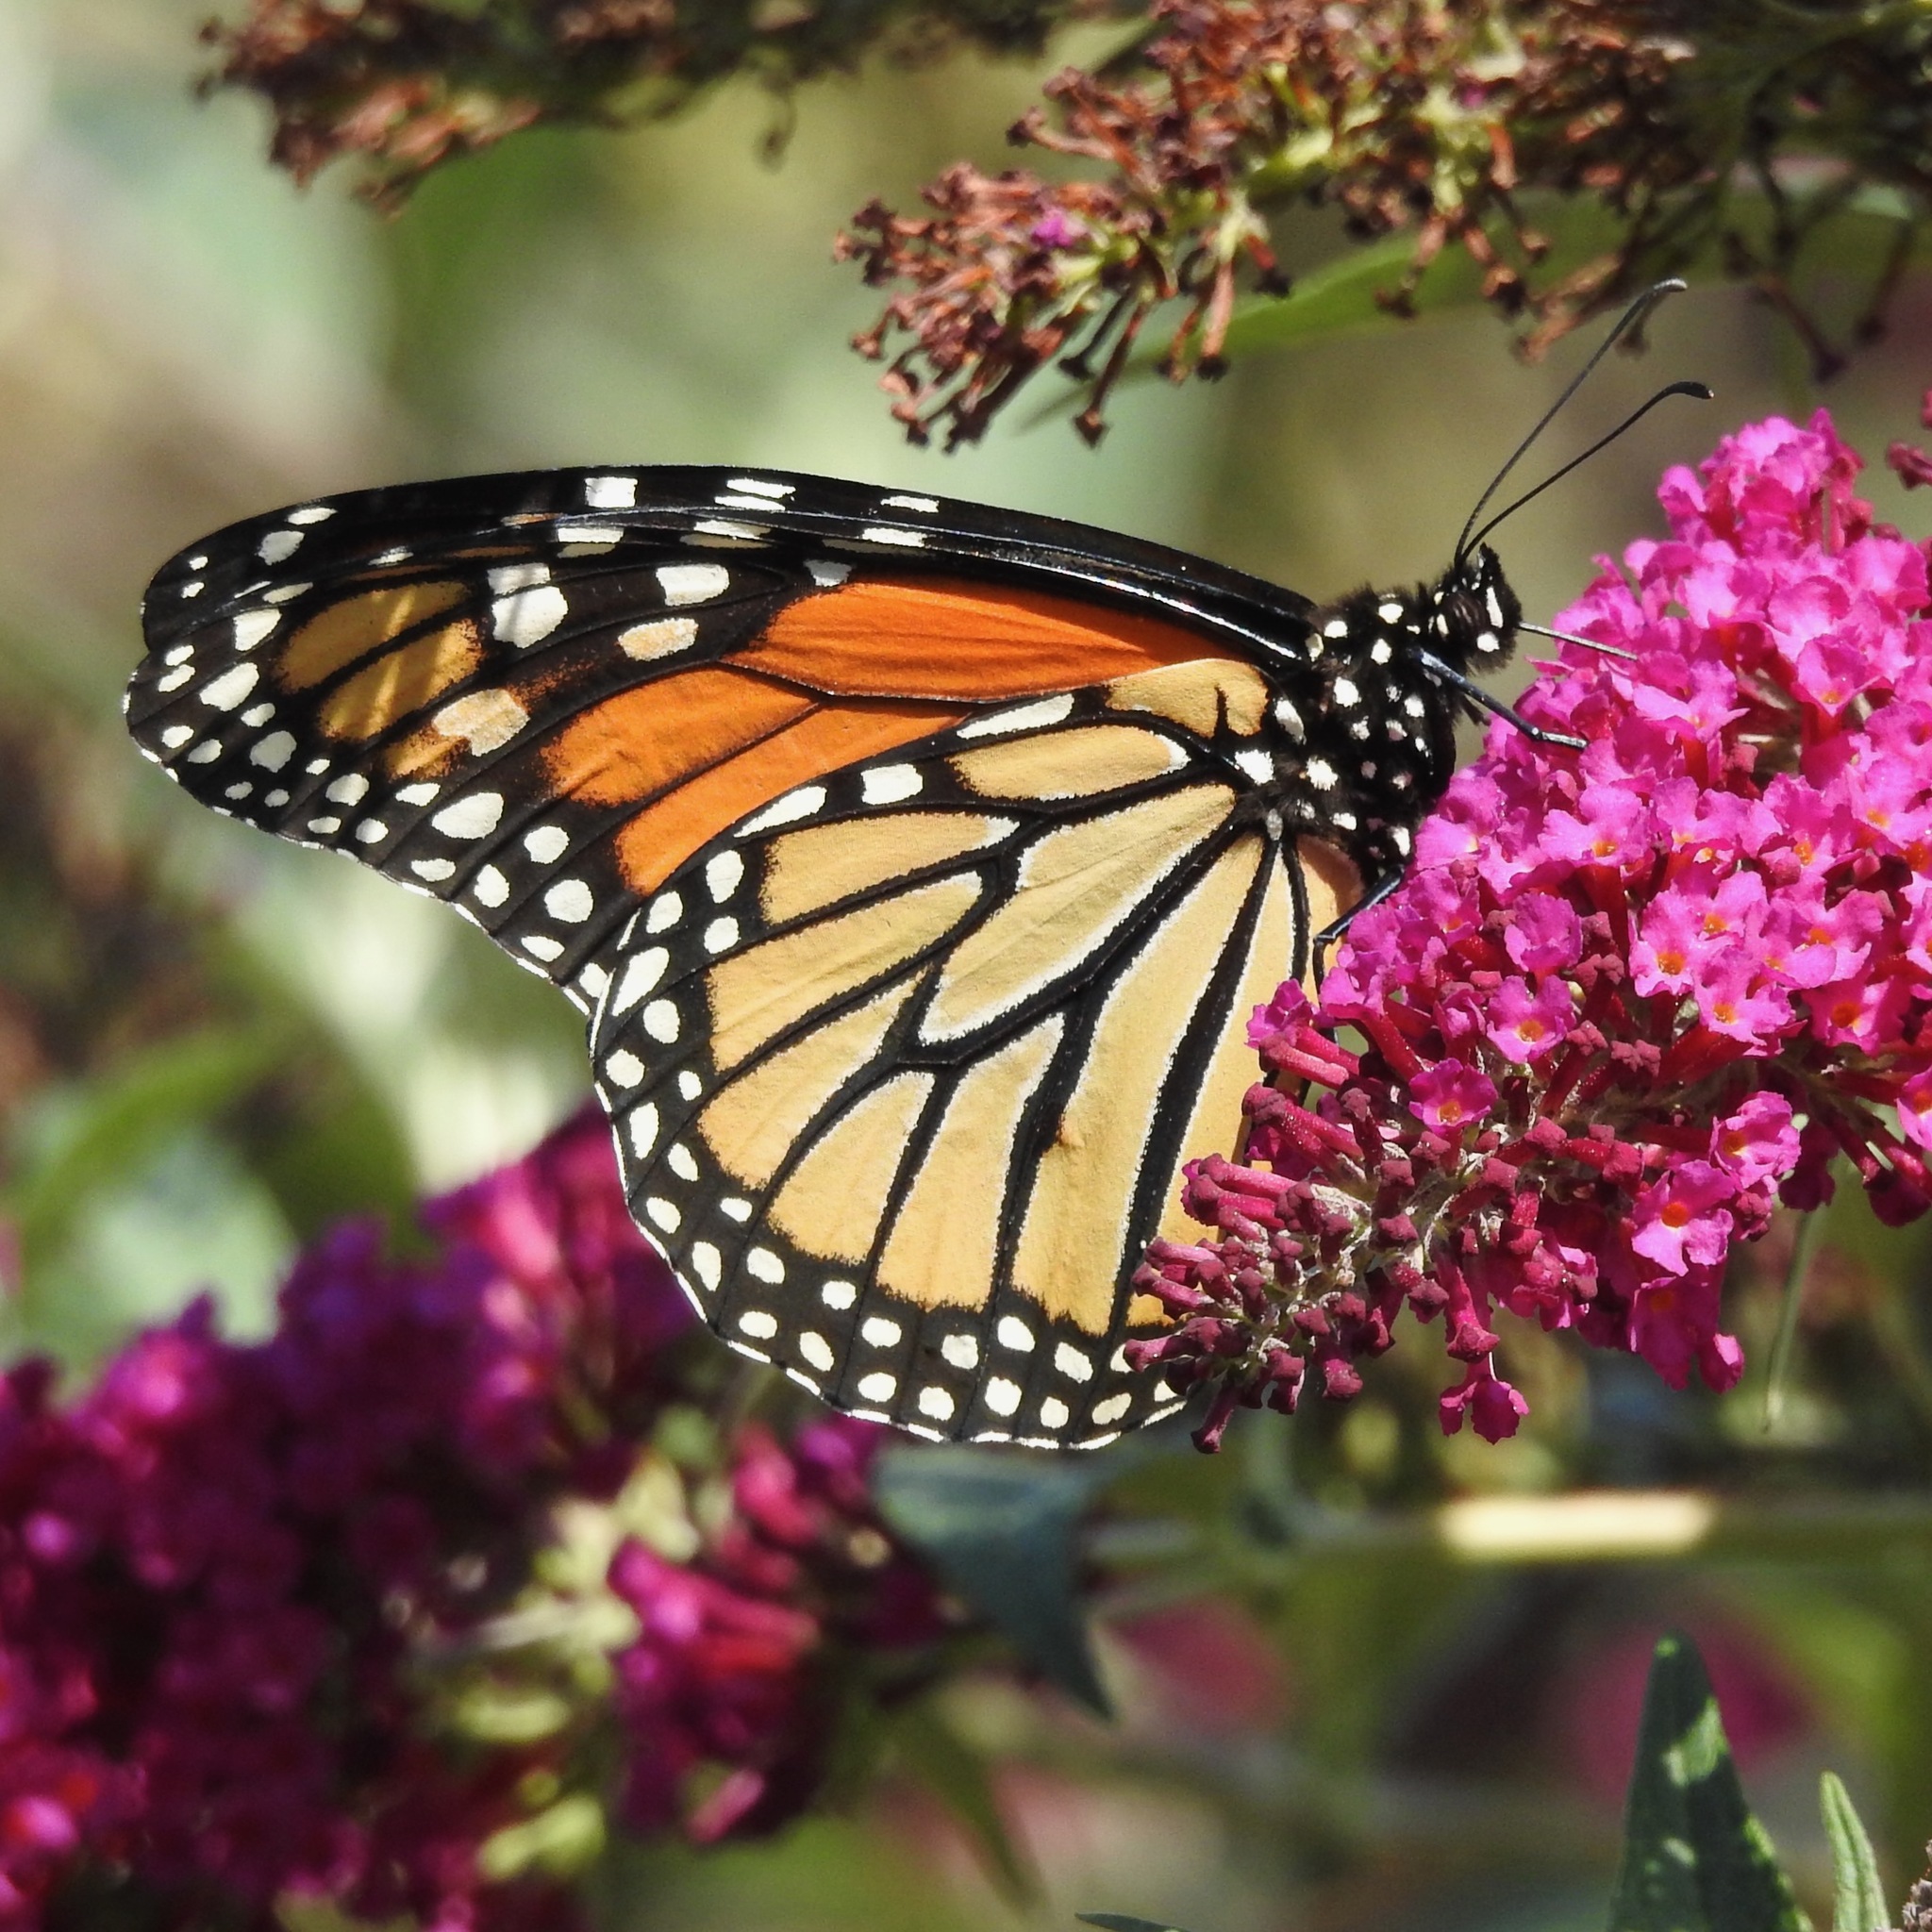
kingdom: Animalia
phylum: Arthropoda
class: Insecta
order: Lepidoptera
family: Nymphalidae
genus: Danaus
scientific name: Danaus plexippus
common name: Monarch
